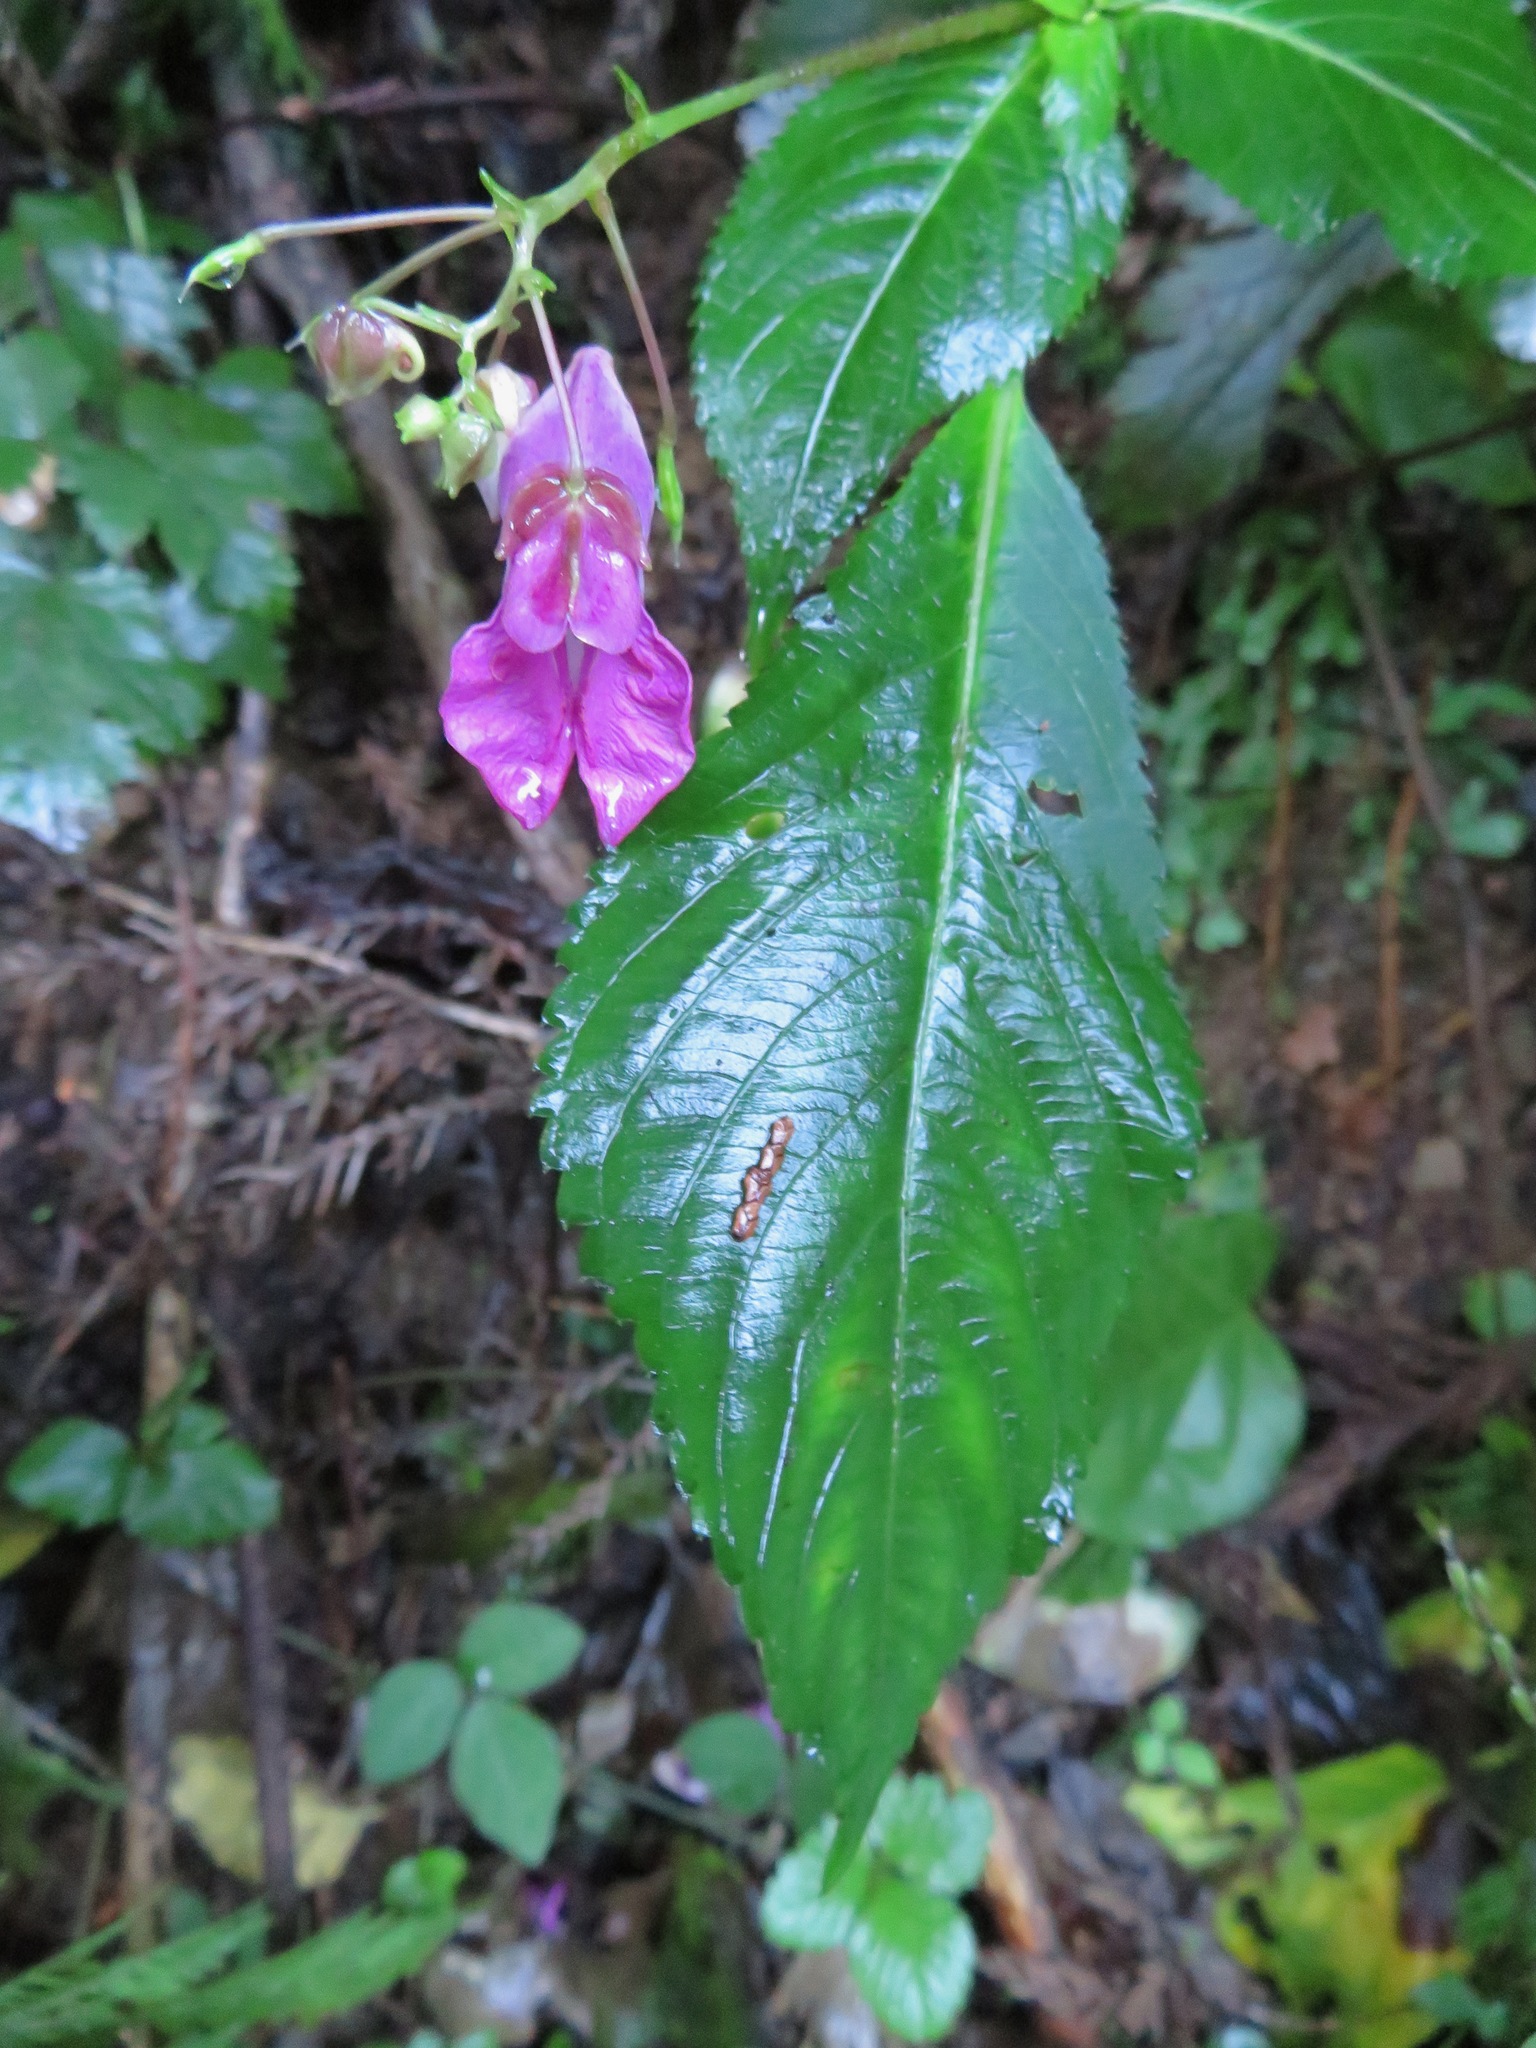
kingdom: Plantae
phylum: Tracheophyta
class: Magnoliopsida
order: Ericales
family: Balsaminaceae
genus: Impatiens
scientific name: Impatiens textorii
